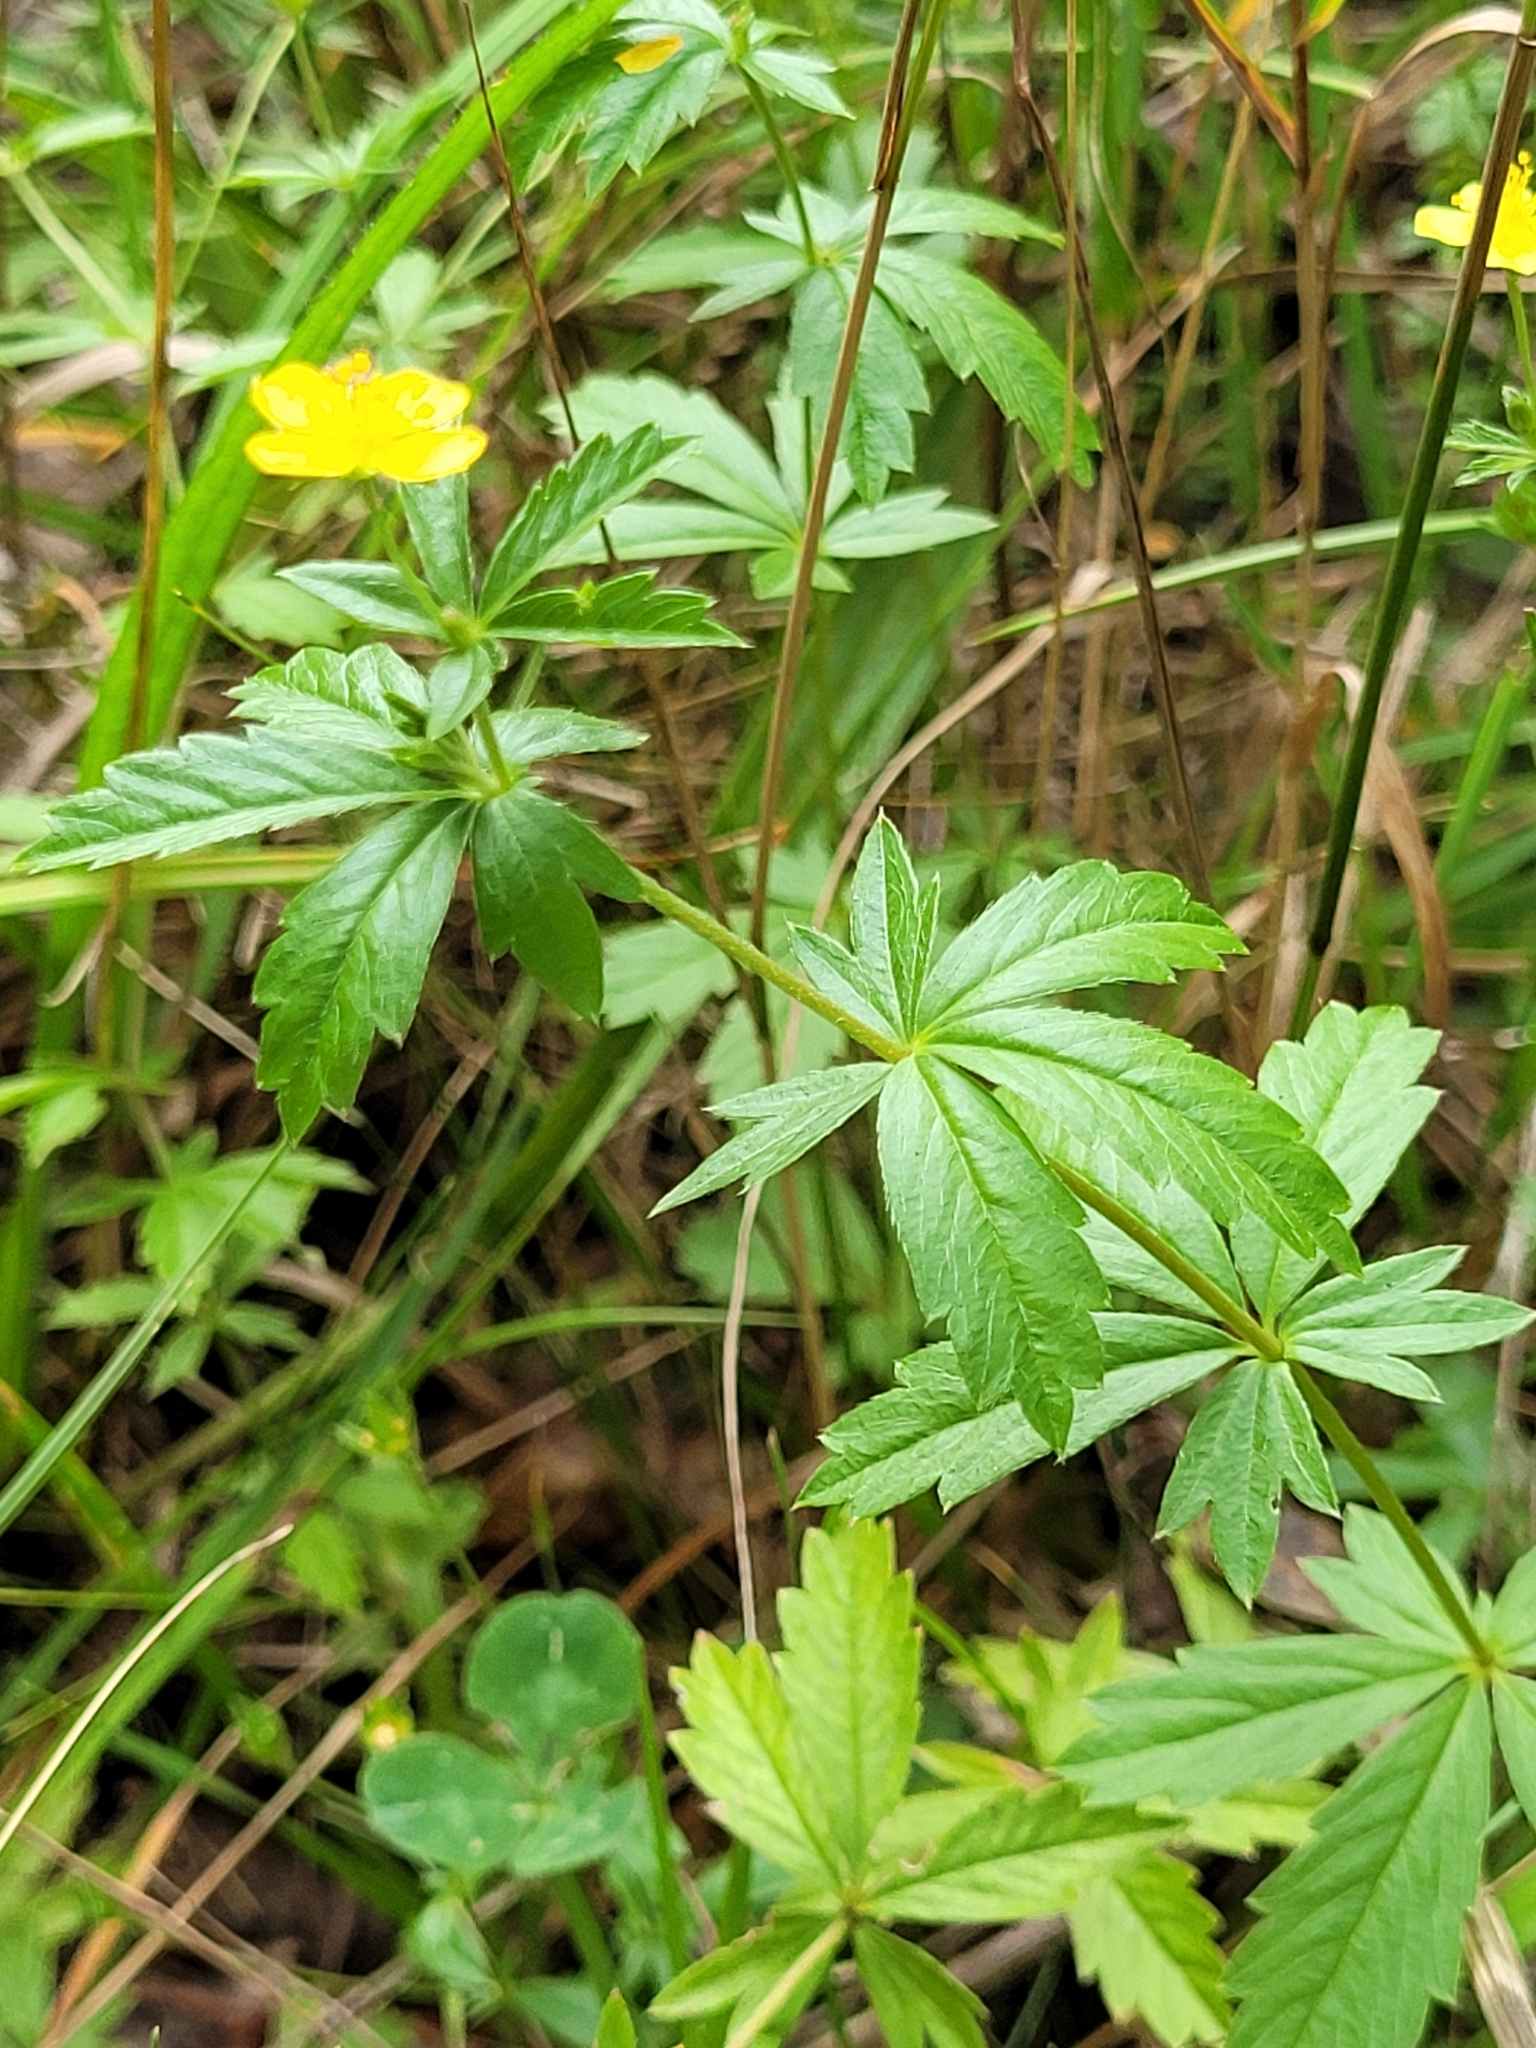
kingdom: Plantae
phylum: Tracheophyta
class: Magnoliopsida
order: Rosales
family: Rosaceae
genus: Potentilla
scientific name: Potentilla erecta
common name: Tormentil
